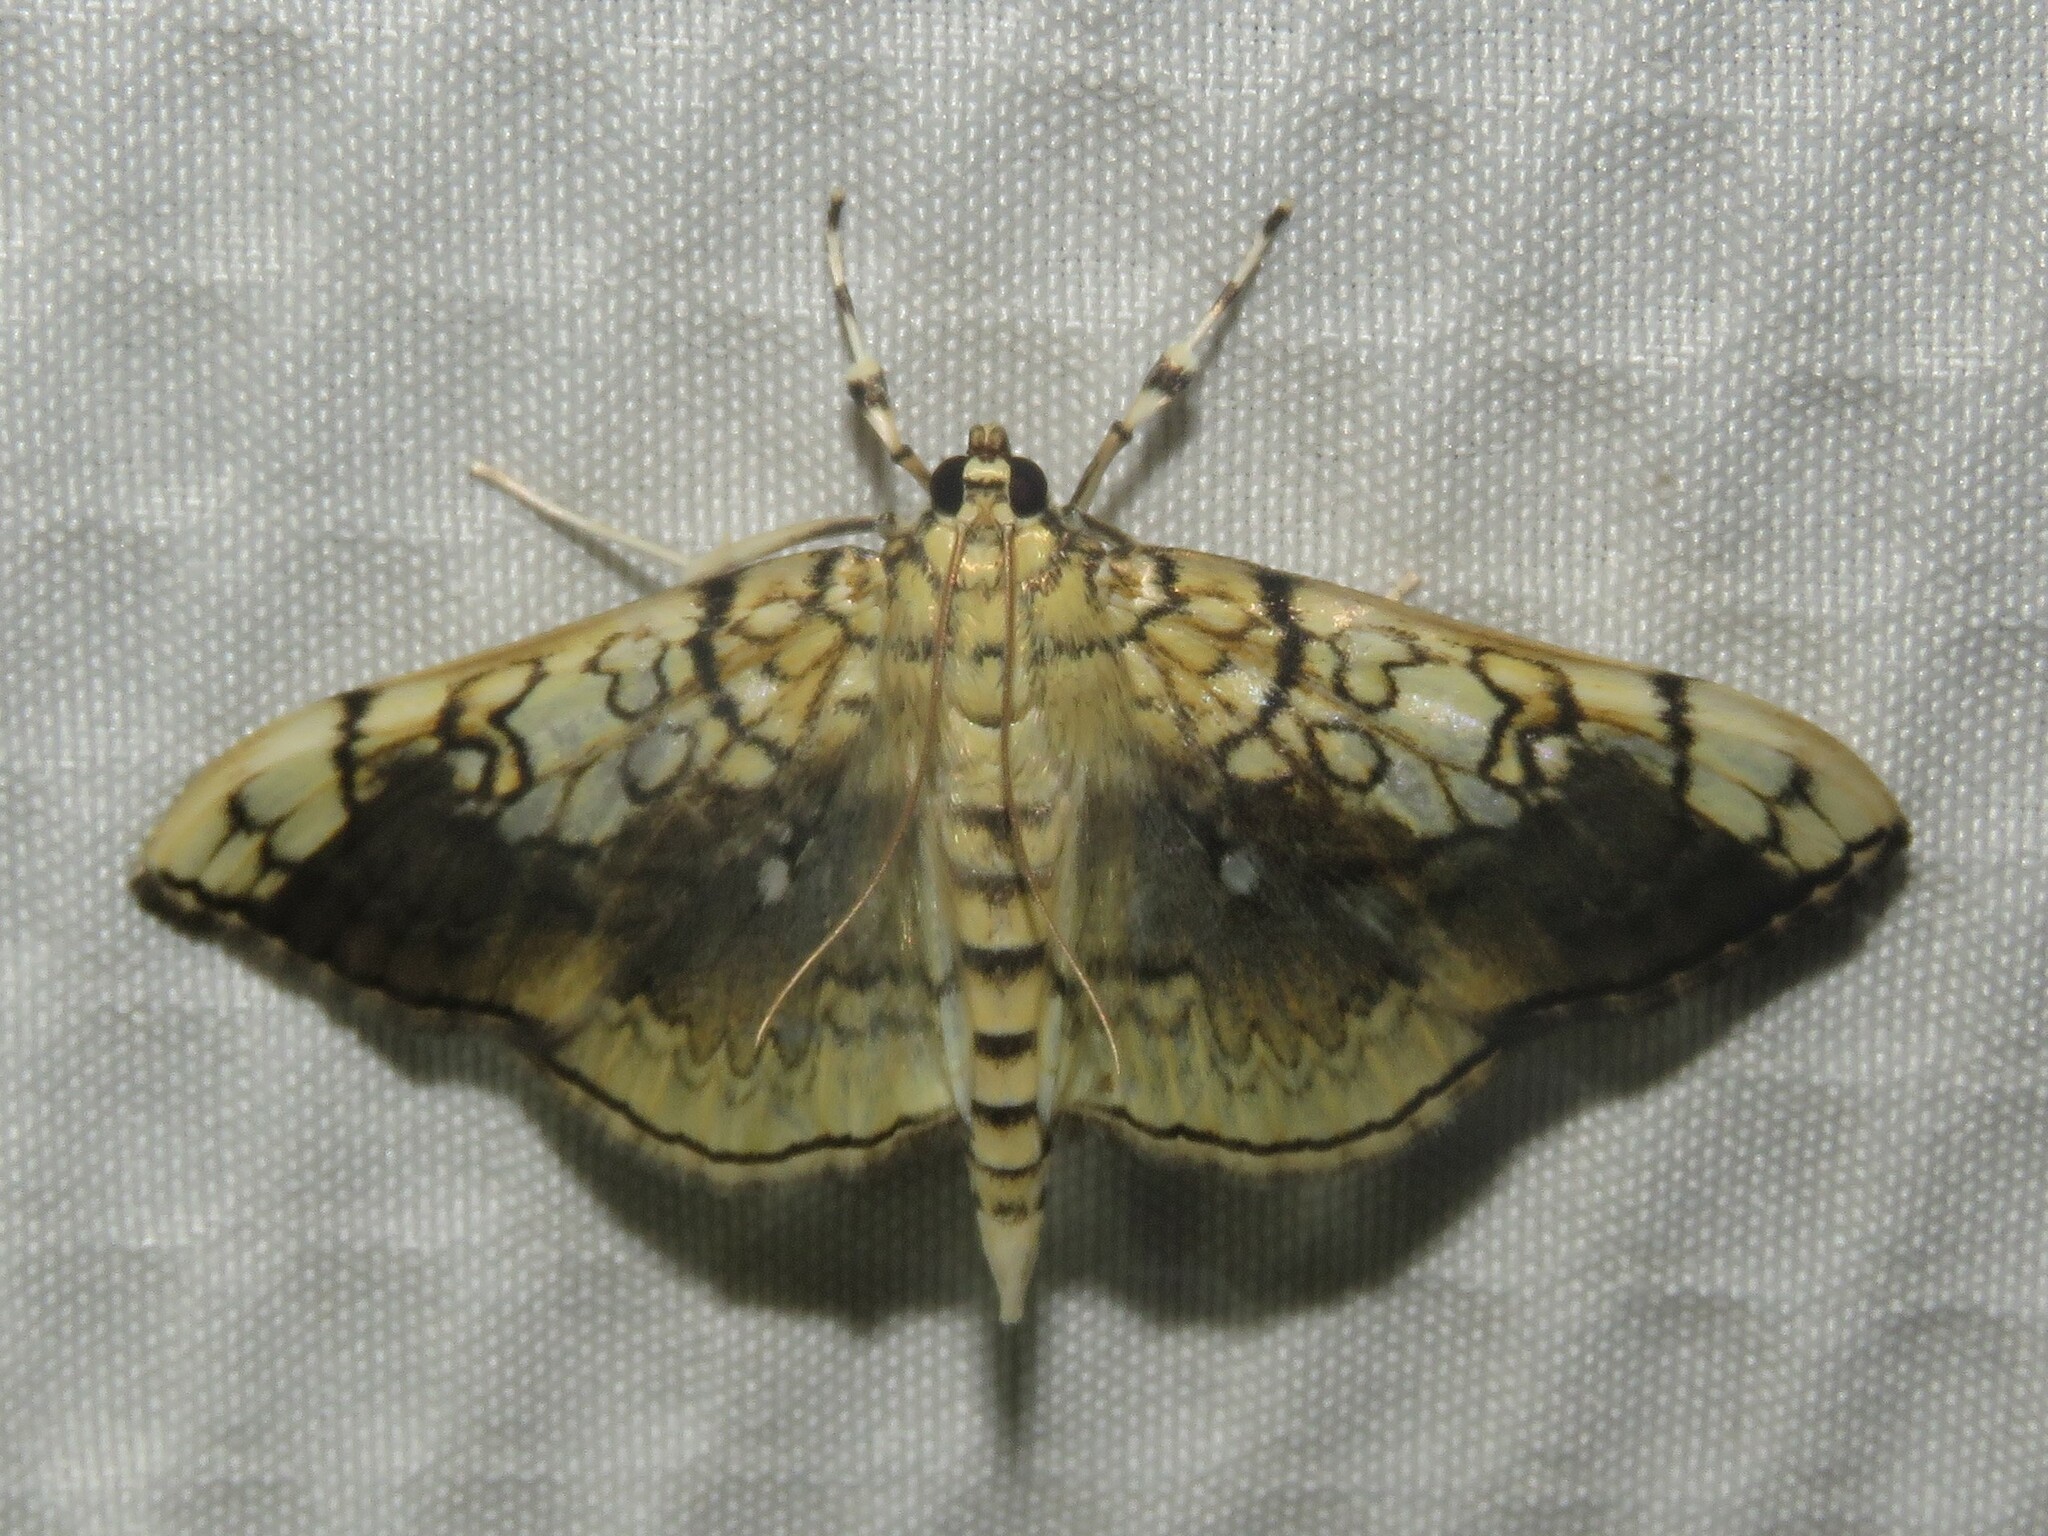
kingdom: Animalia
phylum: Arthropoda
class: Insecta
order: Lepidoptera
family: Crambidae
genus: Pantographa
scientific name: Pantographa limata
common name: Basswood leafroller moth
